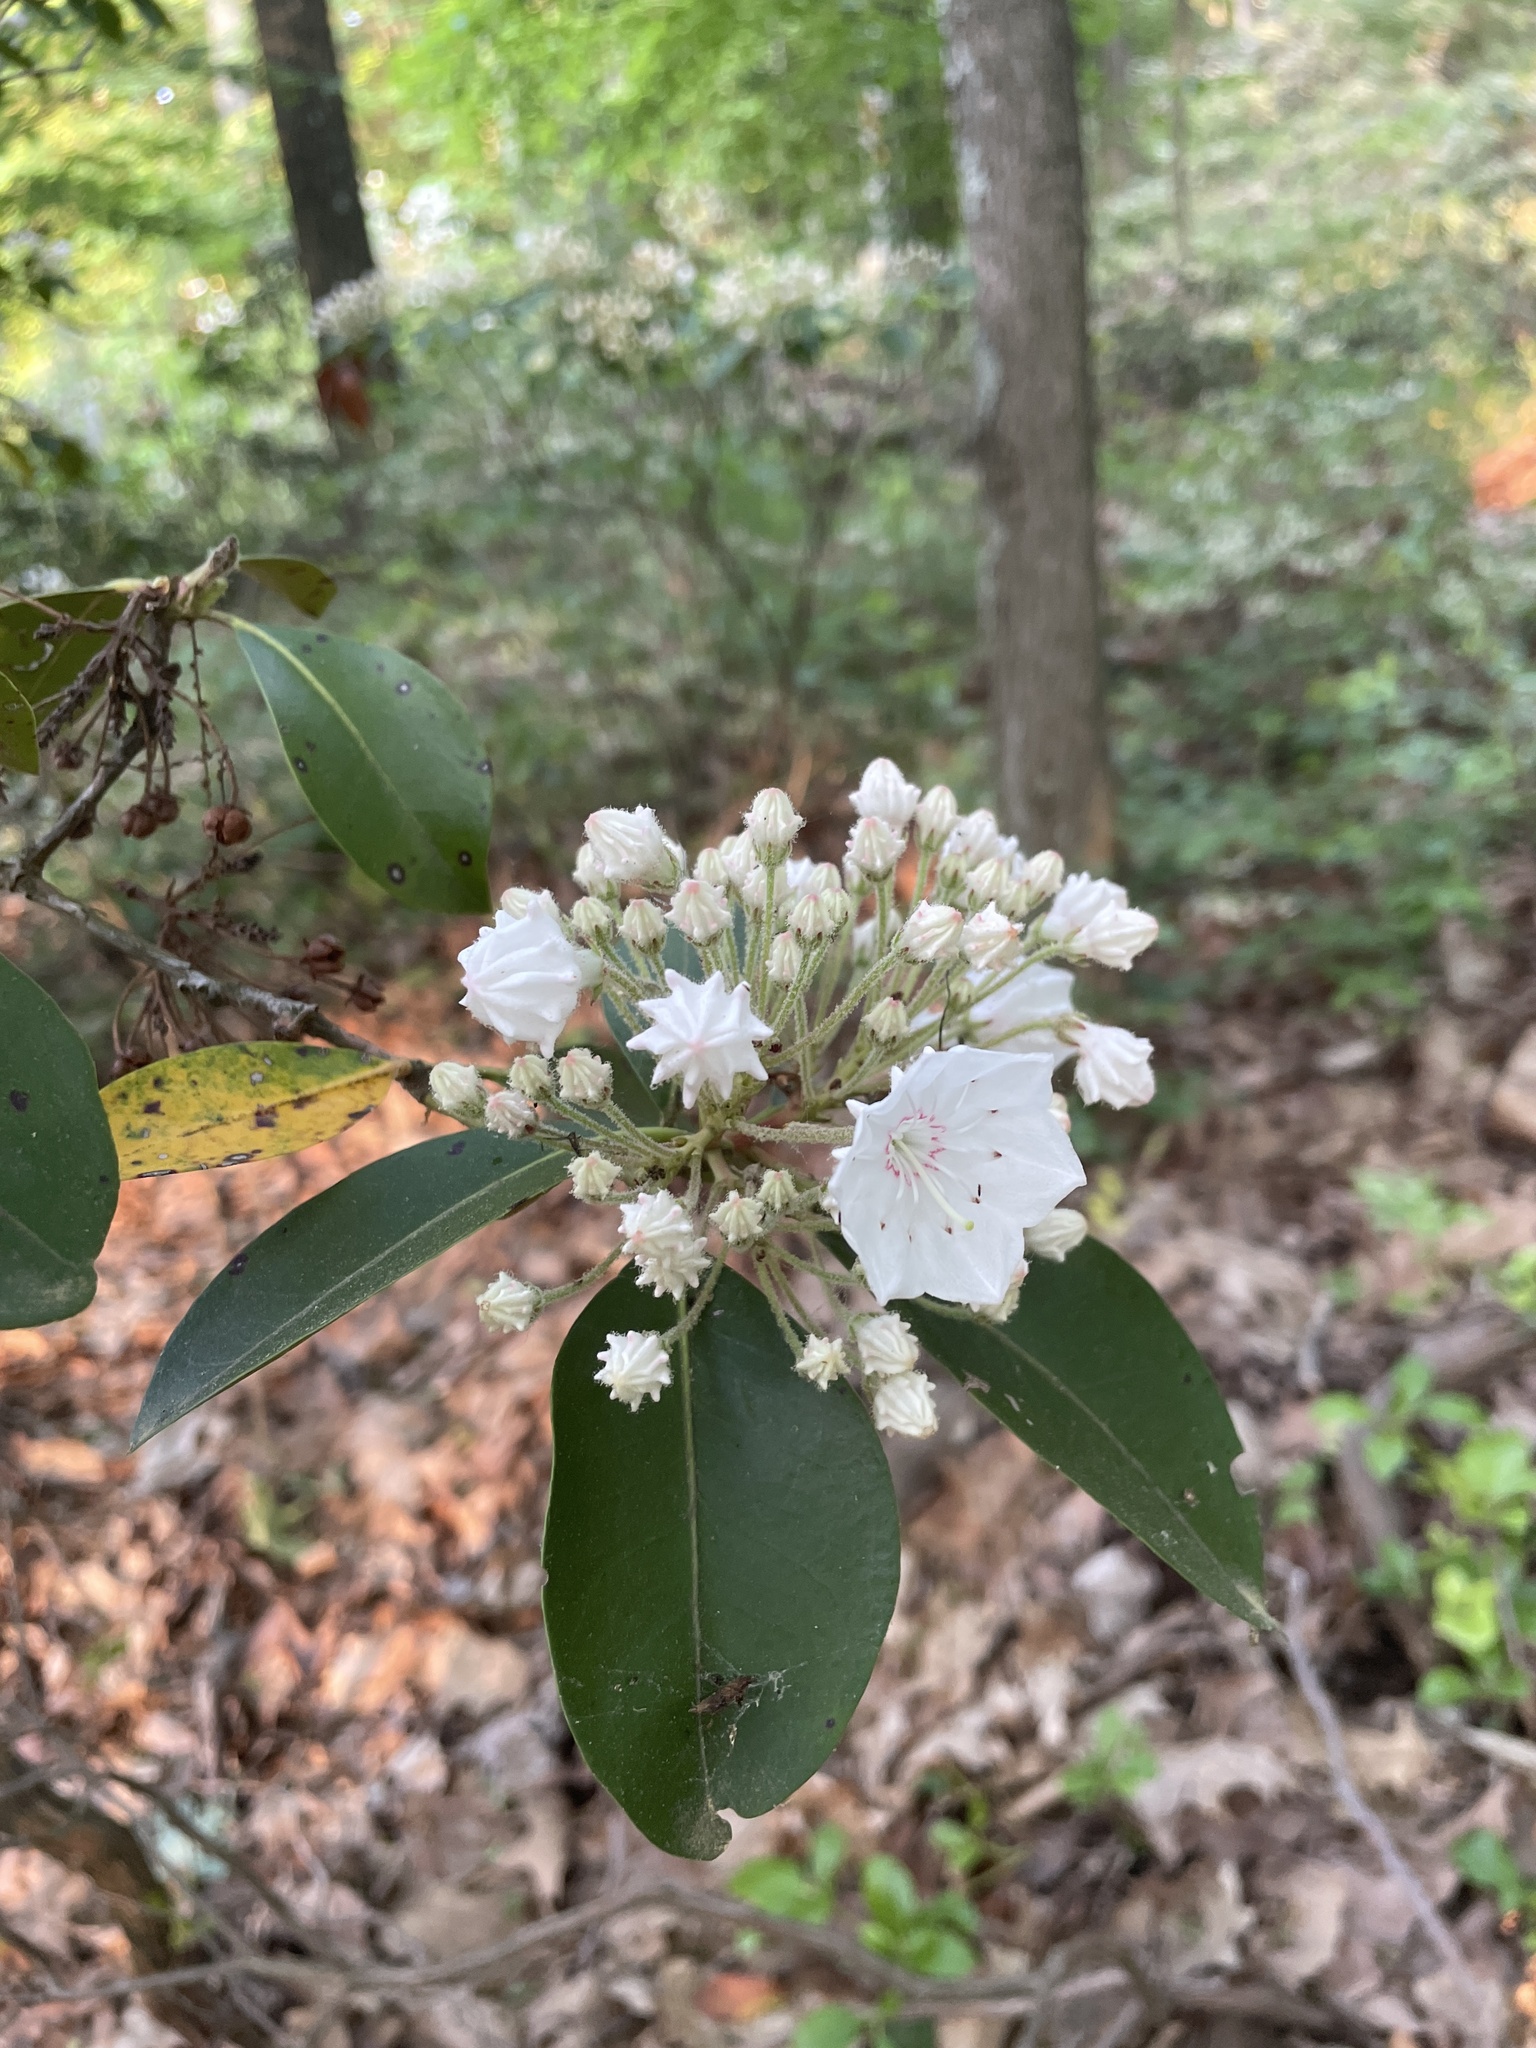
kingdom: Plantae
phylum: Tracheophyta
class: Magnoliopsida
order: Ericales
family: Ericaceae
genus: Kalmia
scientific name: Kalmia latifolia
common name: Mountain-laurel
